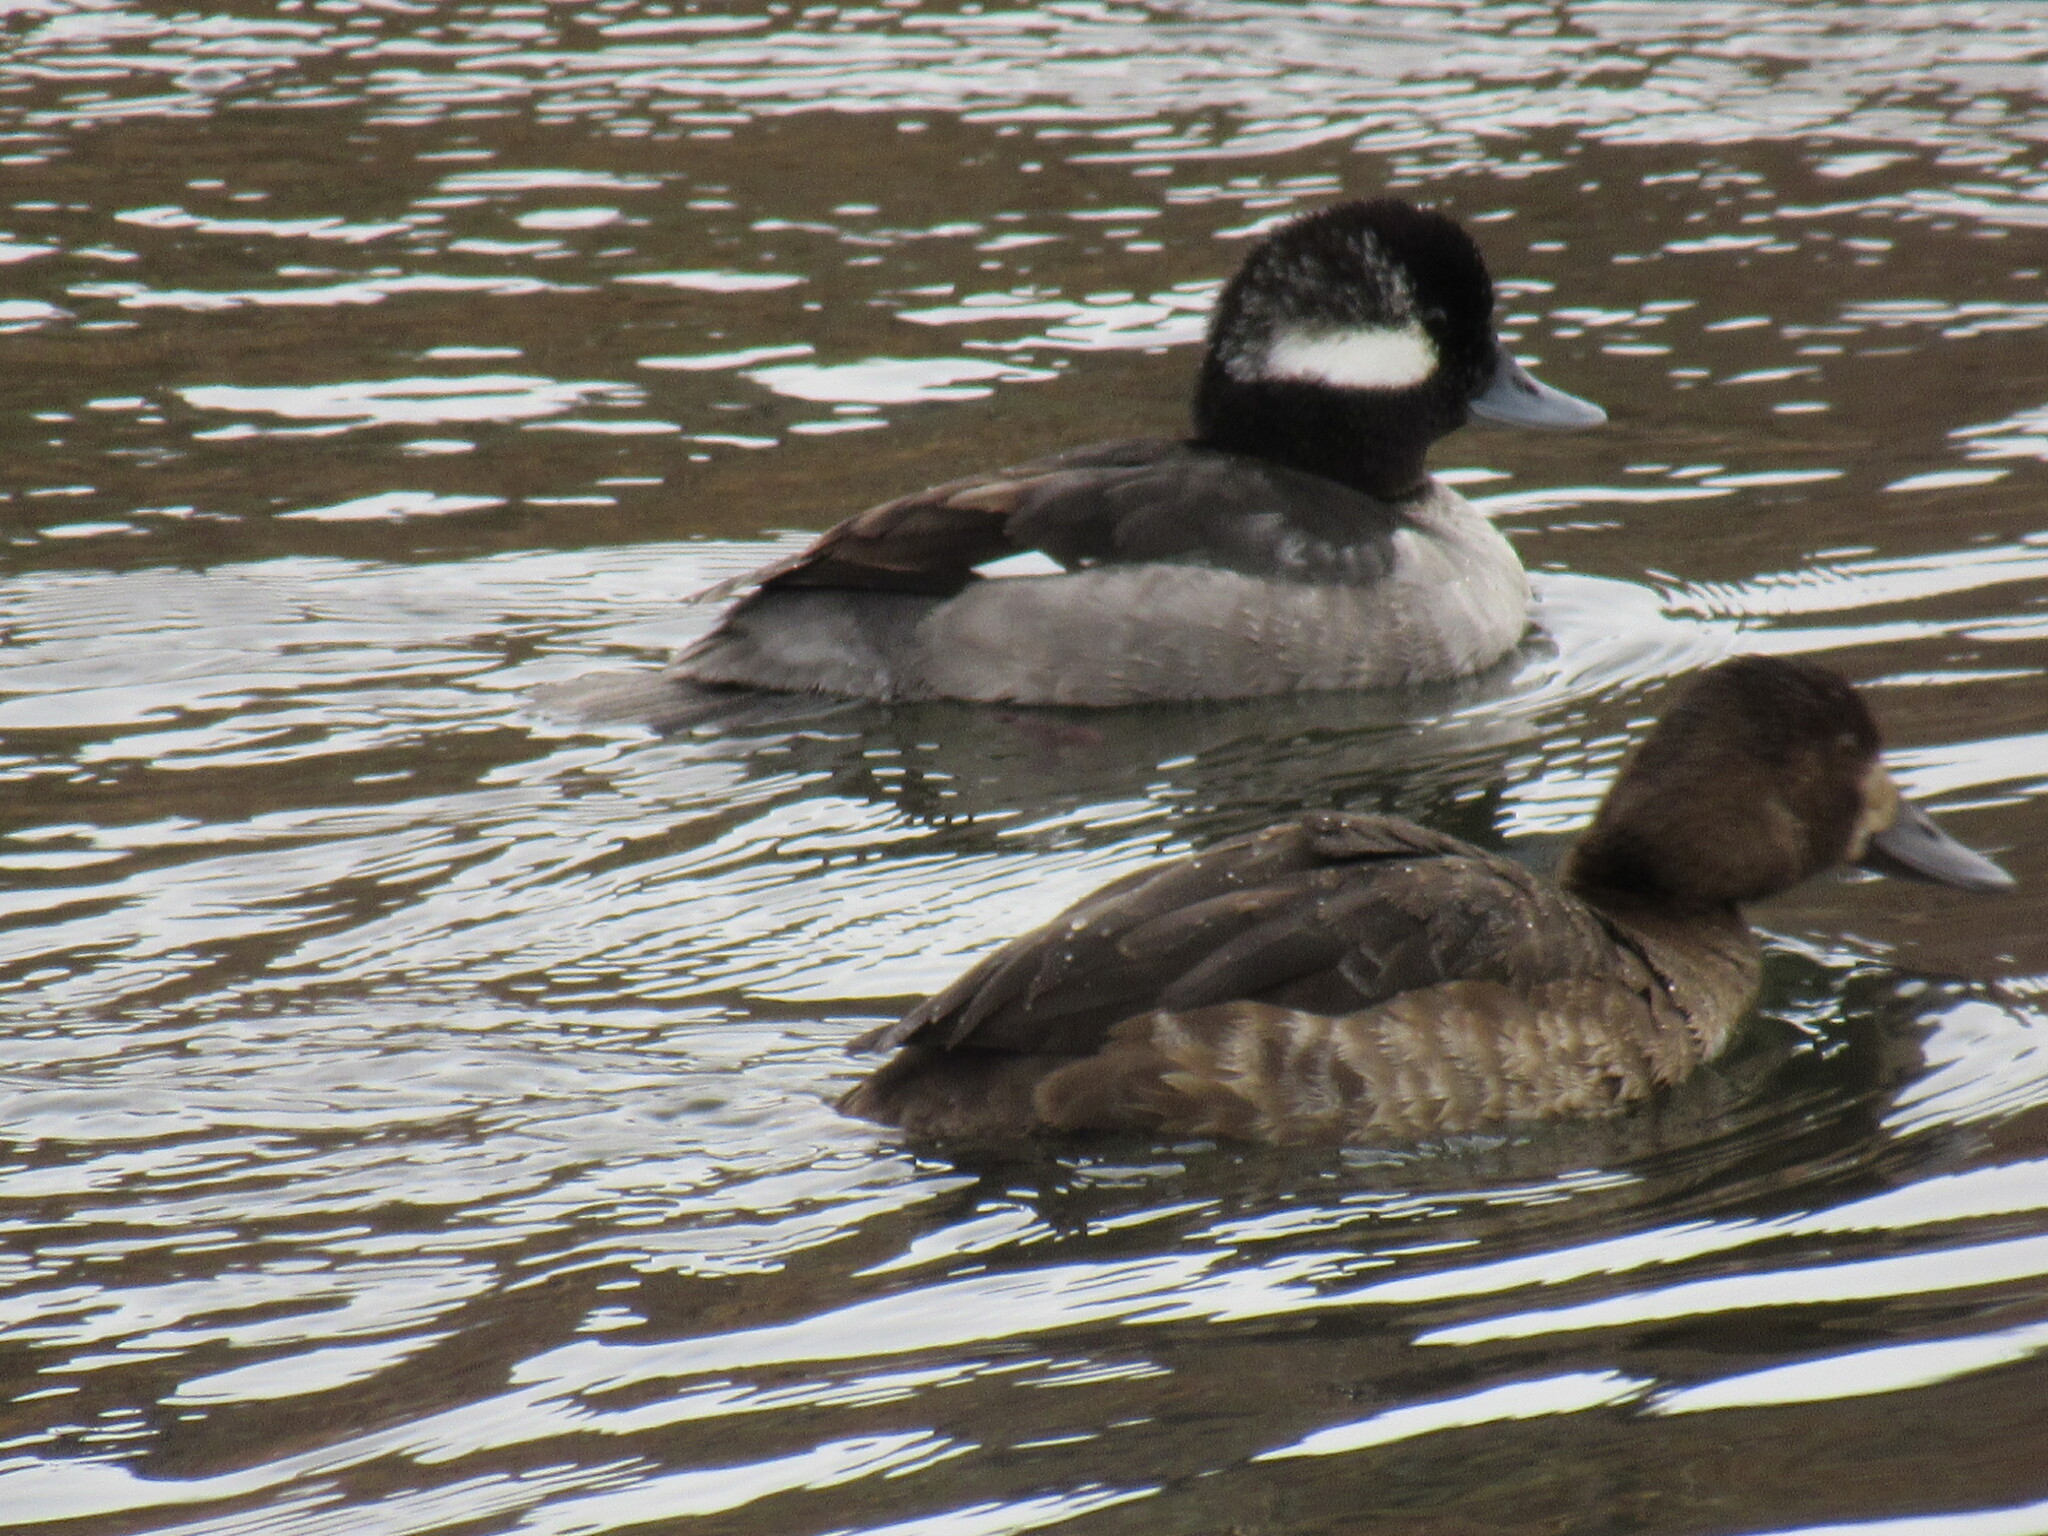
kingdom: Animalia
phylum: Chordata
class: Aves
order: Anseriformes
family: Anatidae
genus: Aythya
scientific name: Aythya affinis
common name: Lesser scaup
